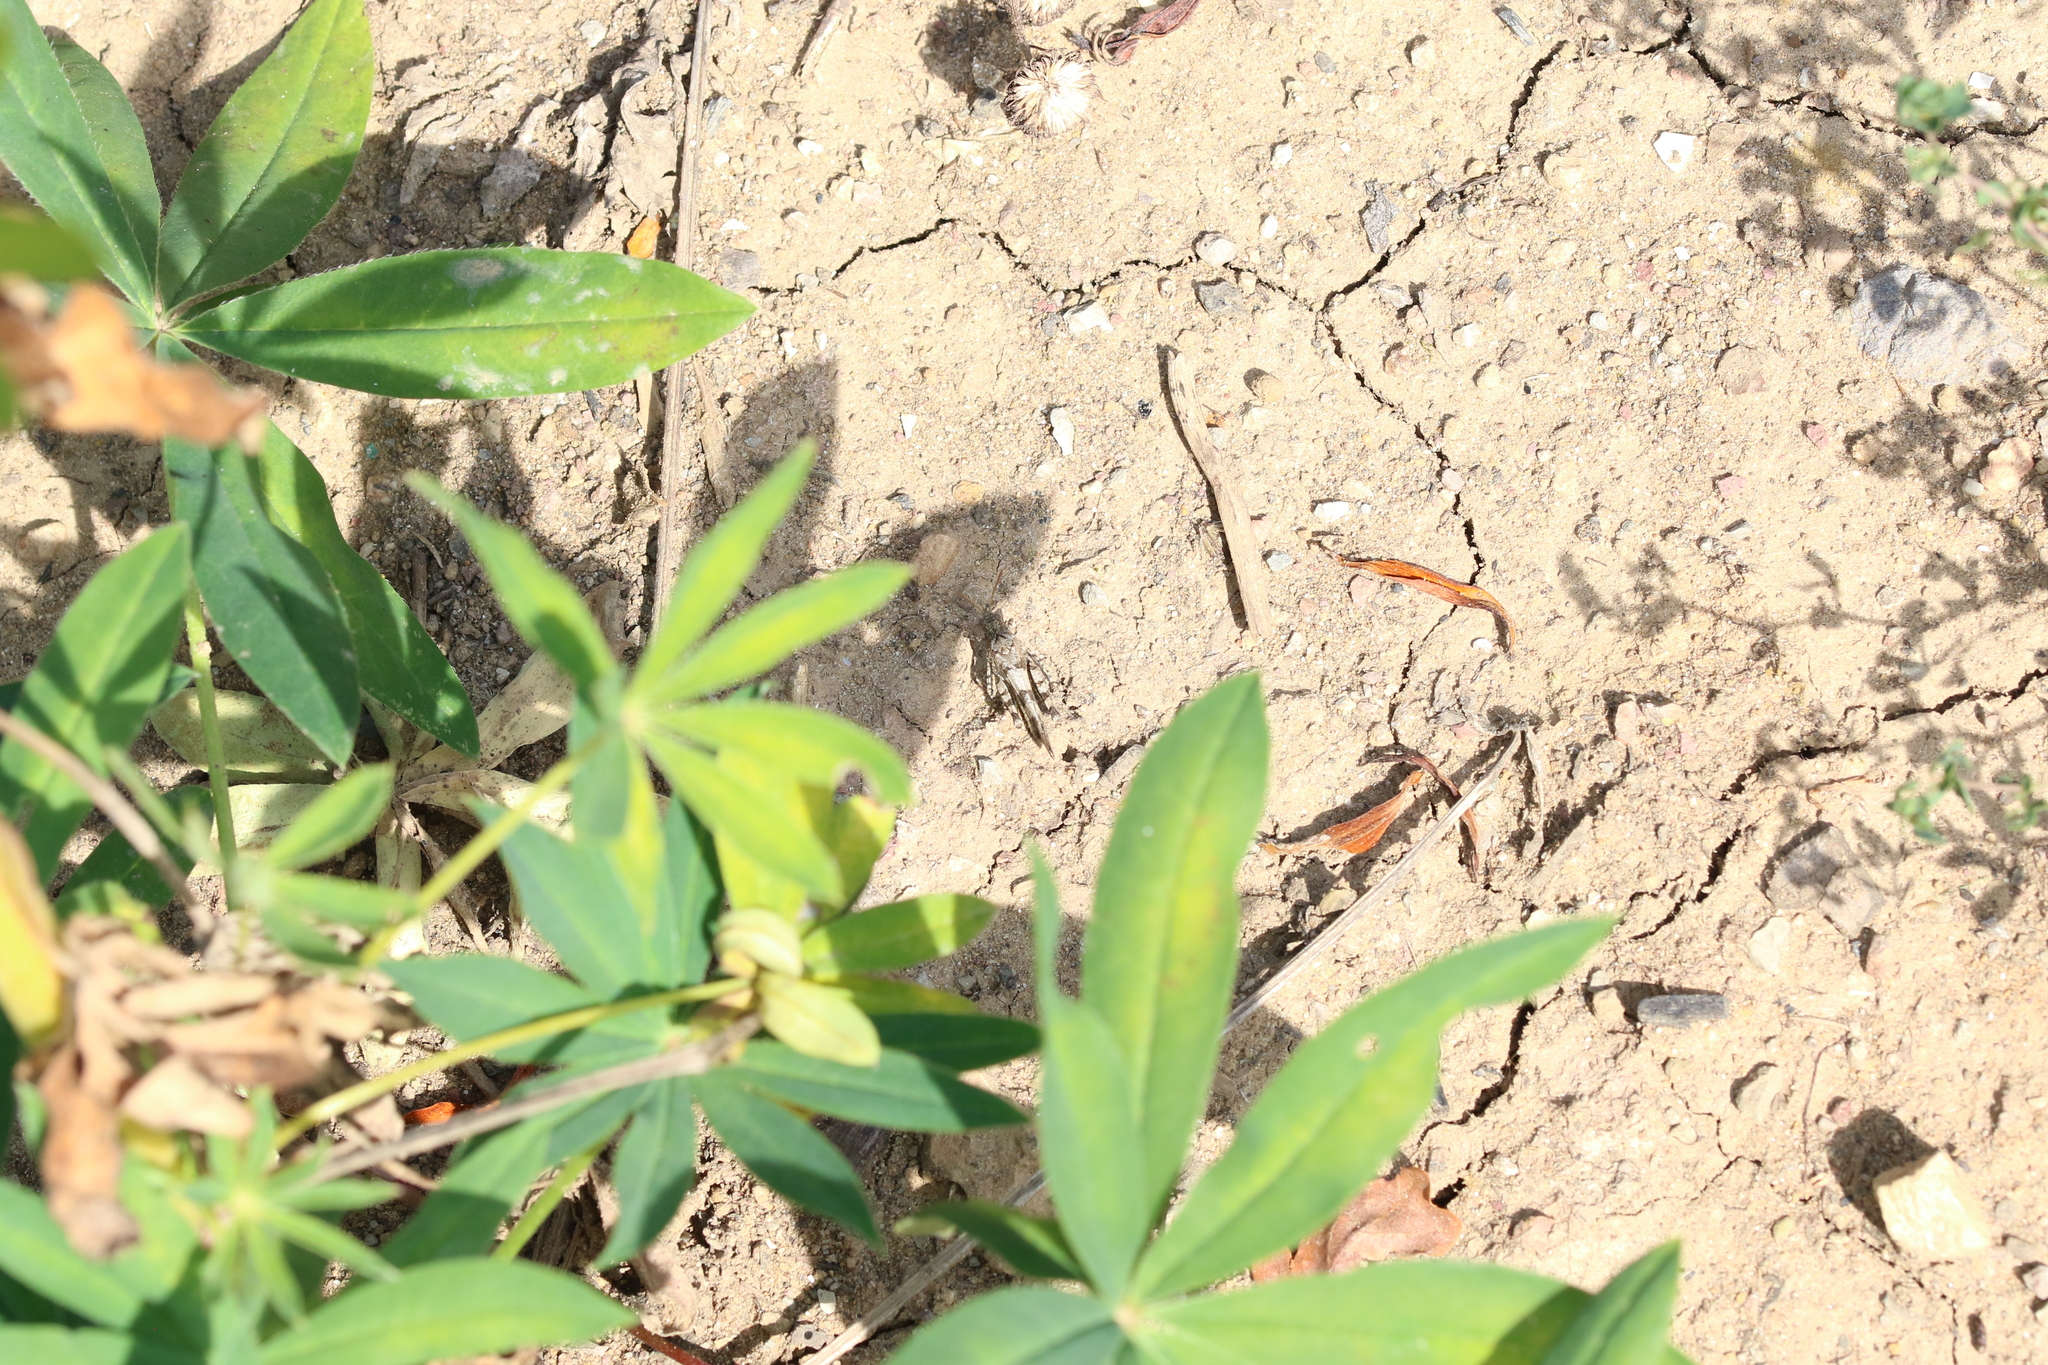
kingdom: Animalia
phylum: Arthropoda
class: Insecta
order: Orthoptera
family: Acrididae
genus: Oedipoda
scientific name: Oedipoda caerulescens
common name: Blue-winged grasshopper
